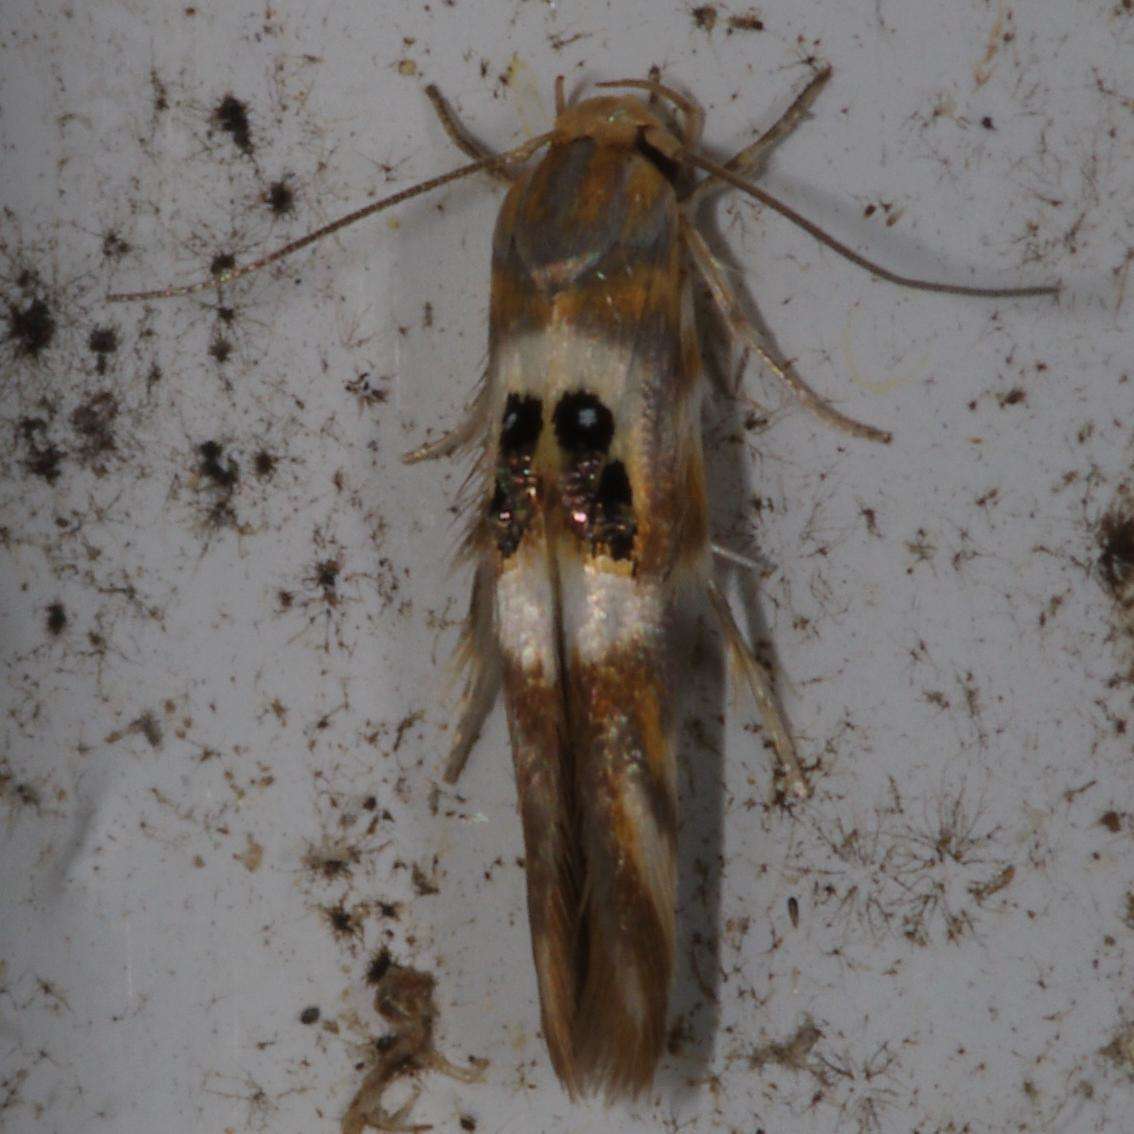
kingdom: Animalia
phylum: Arthropoda
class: Insecta
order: Lepidoptera
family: Stathmopodidae
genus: Hieromantis
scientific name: Hieromantis ephodophora
